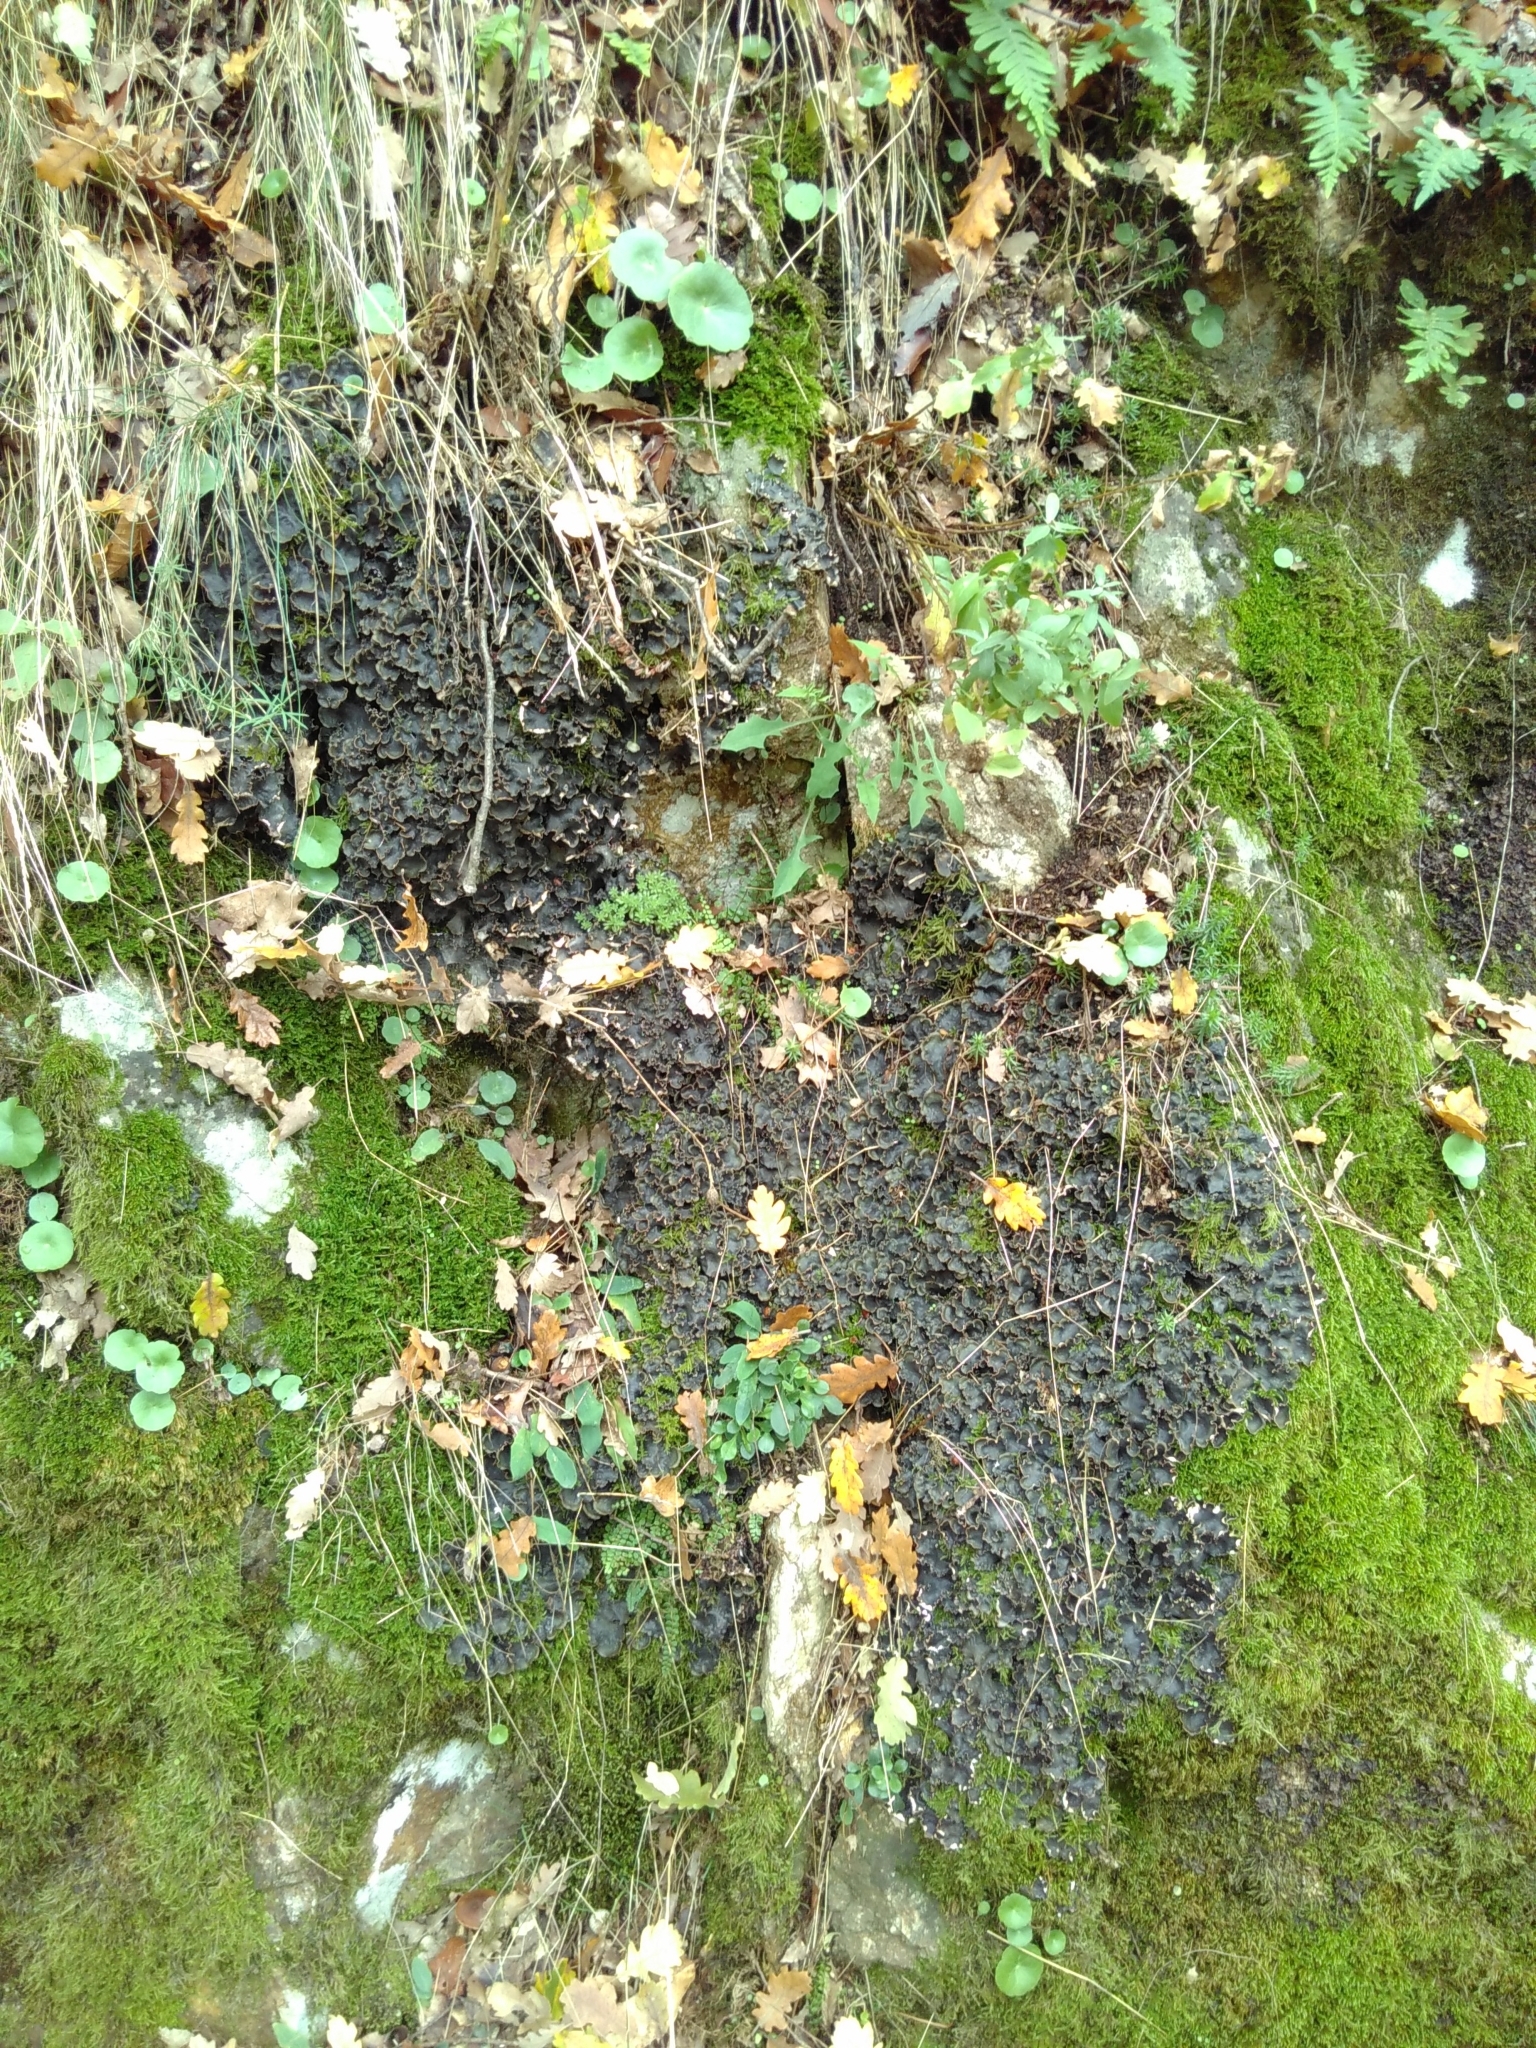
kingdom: Fungi
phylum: Ascomycota
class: Lecanoromycetes
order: Peltigerales
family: Peltigeraceae
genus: Peltigera
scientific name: Peltigera
